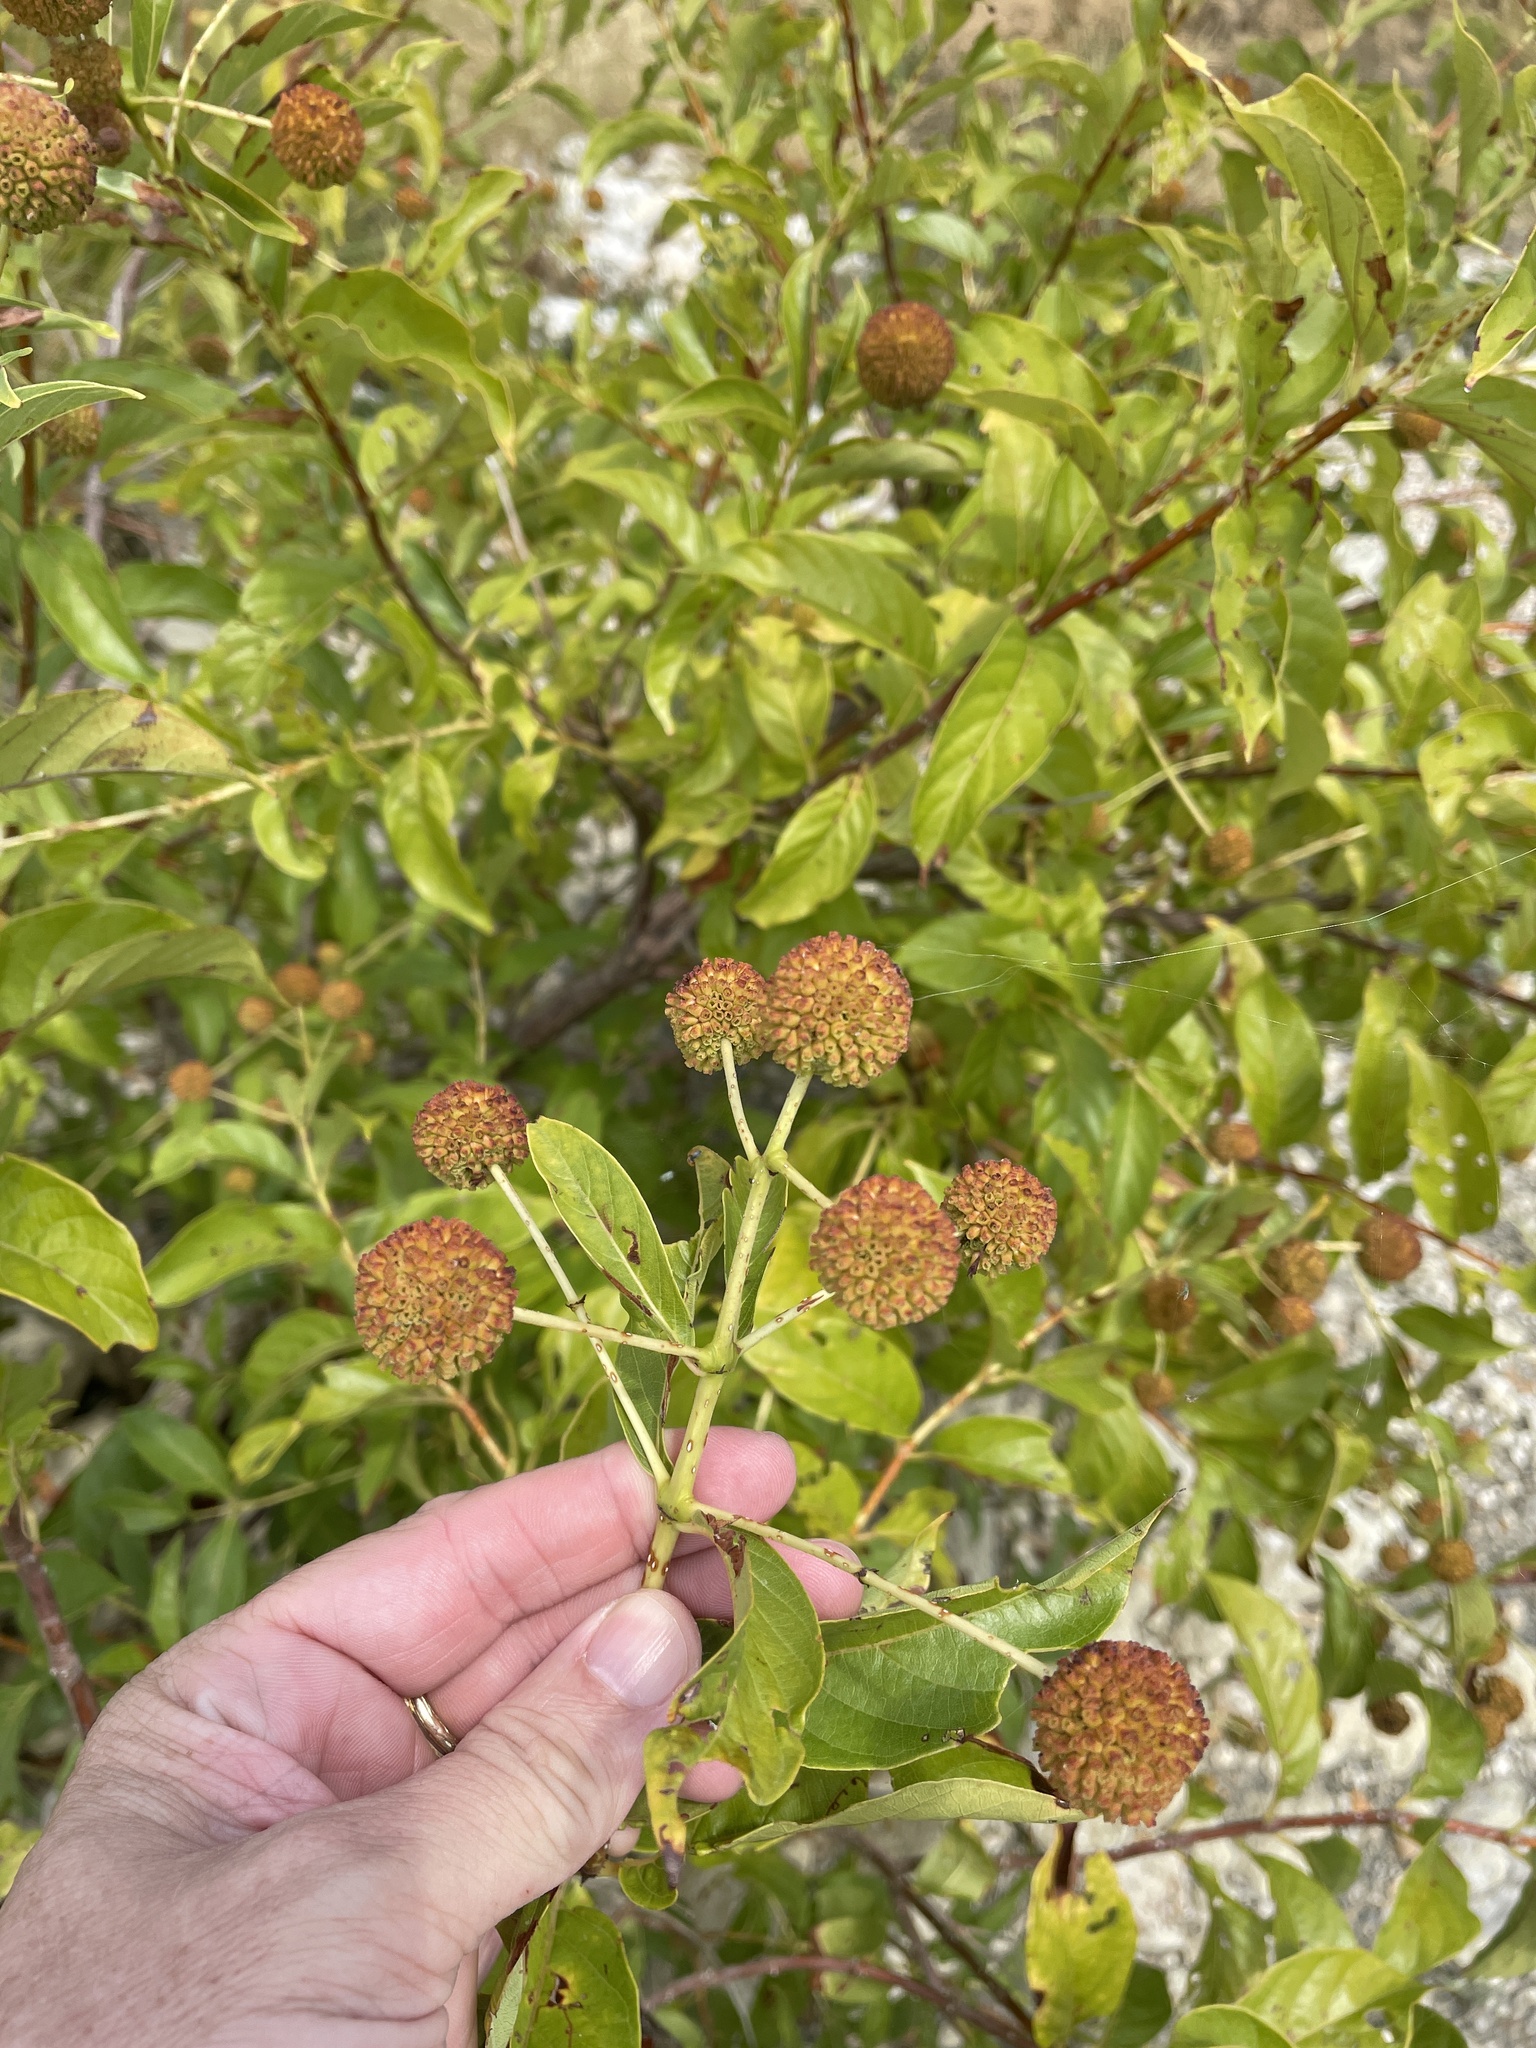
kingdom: Plantae
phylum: Tracheophyta
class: Magnoliopsida
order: Gentianales
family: Rubiaceae
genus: Cephalanthus
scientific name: Cephalanthus occidentalis
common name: Button-willow
